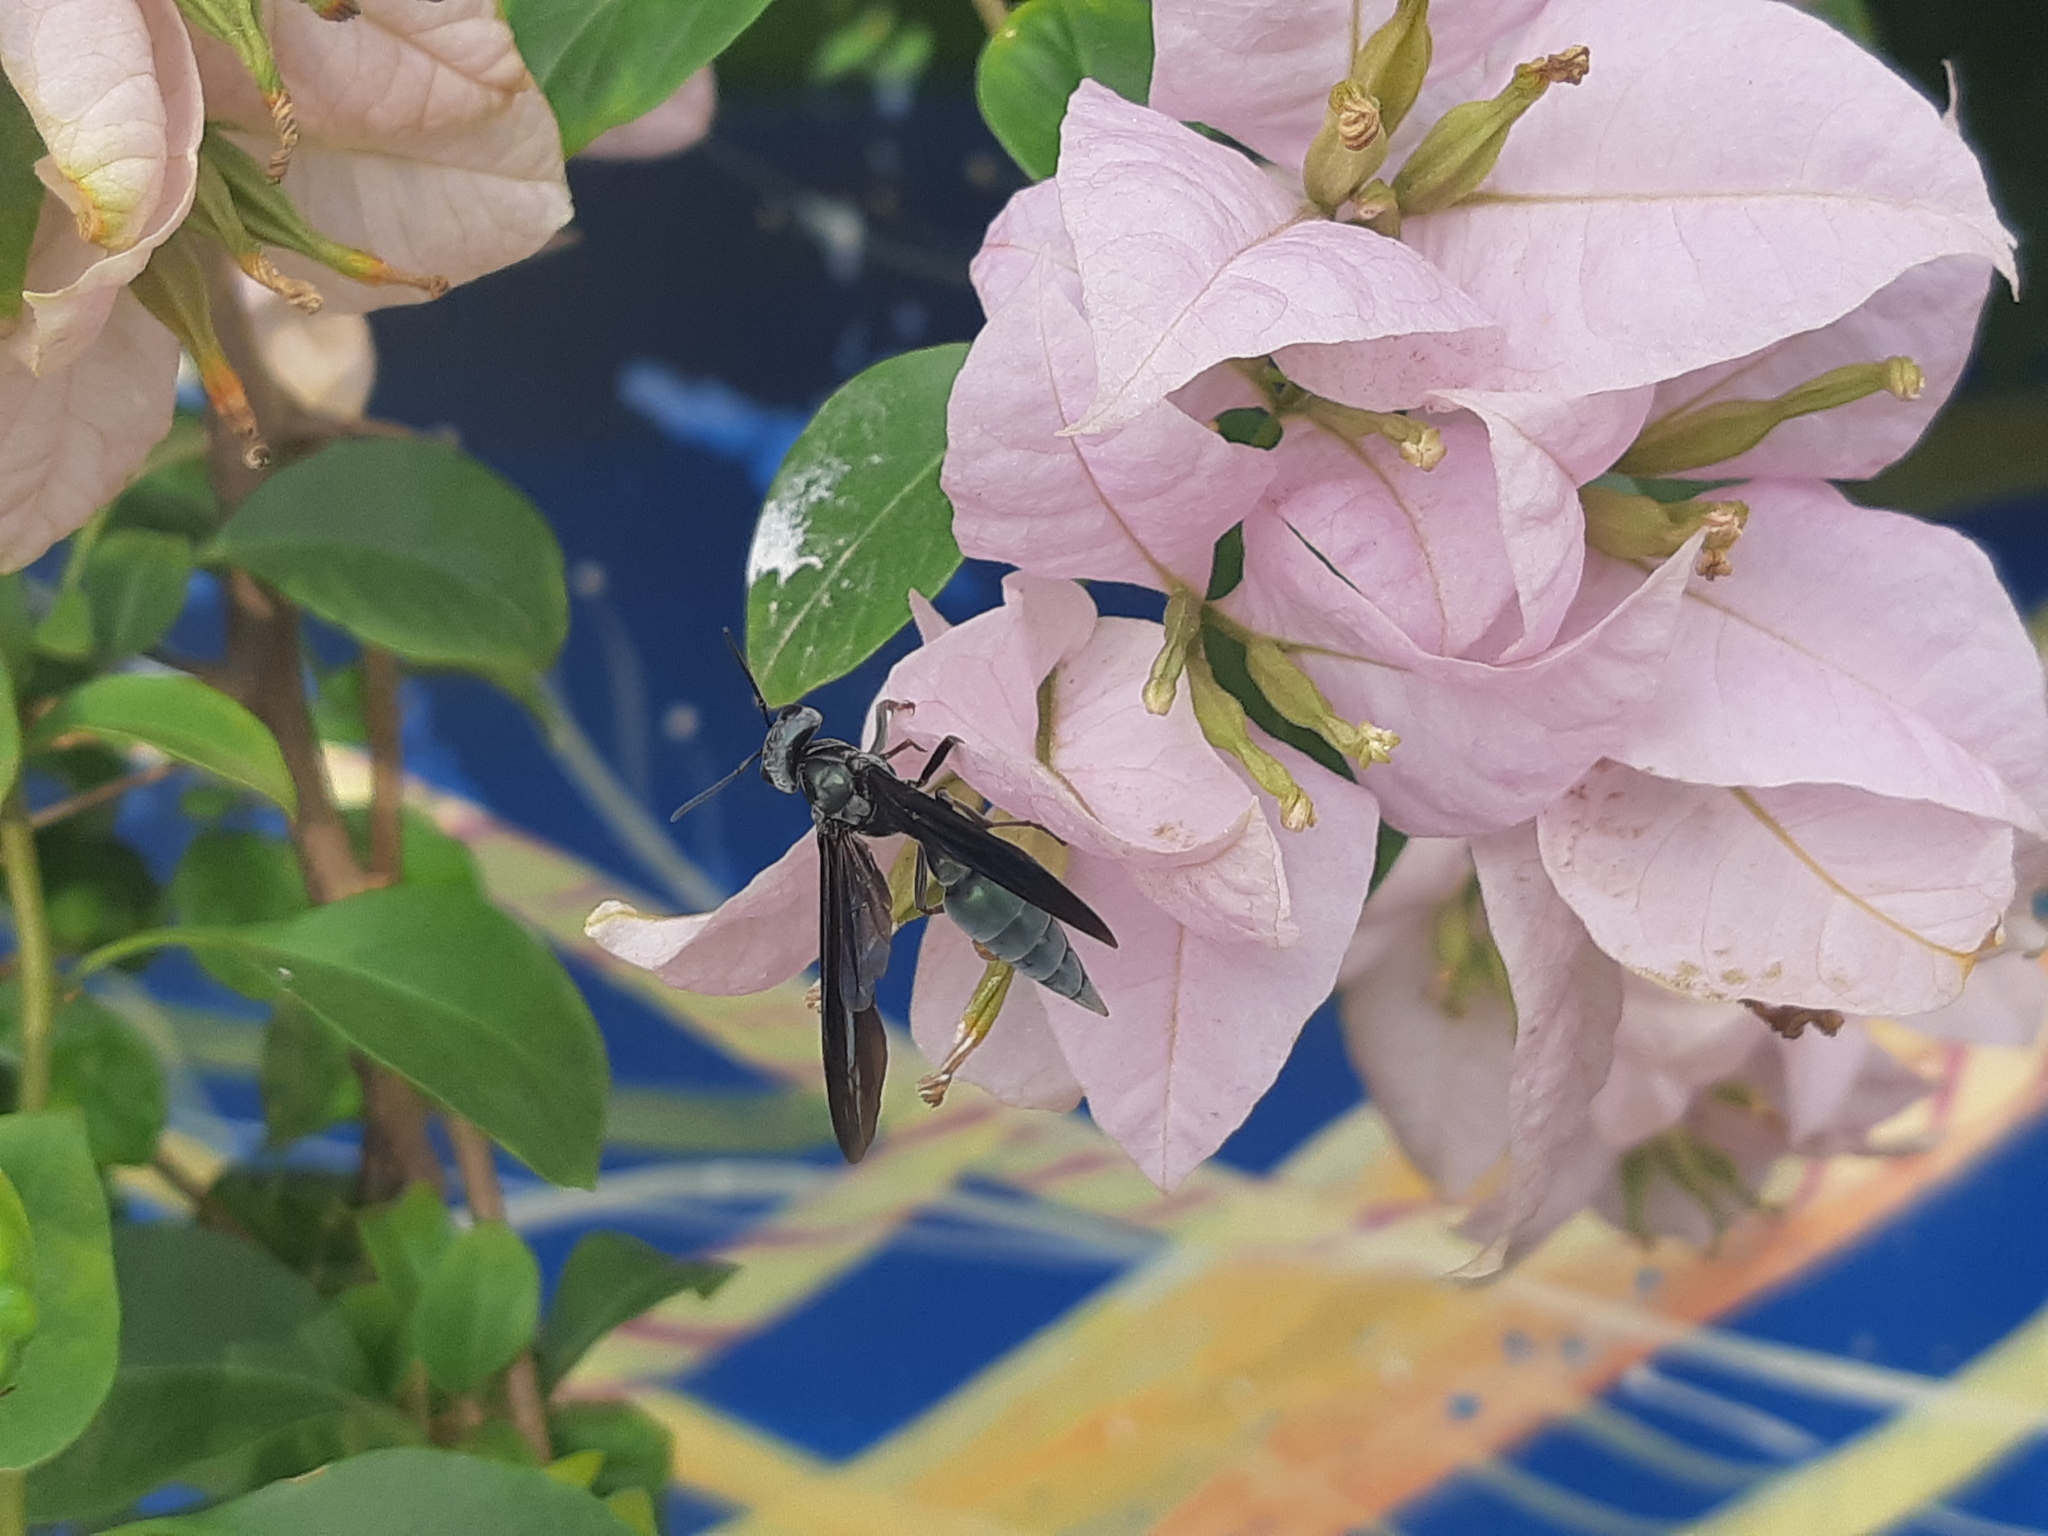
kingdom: Animalia
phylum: Arthropoda
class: Insecta
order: Hymenoptera
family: Vespidae
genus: Synoeca
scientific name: Synoeca septentrionalis
